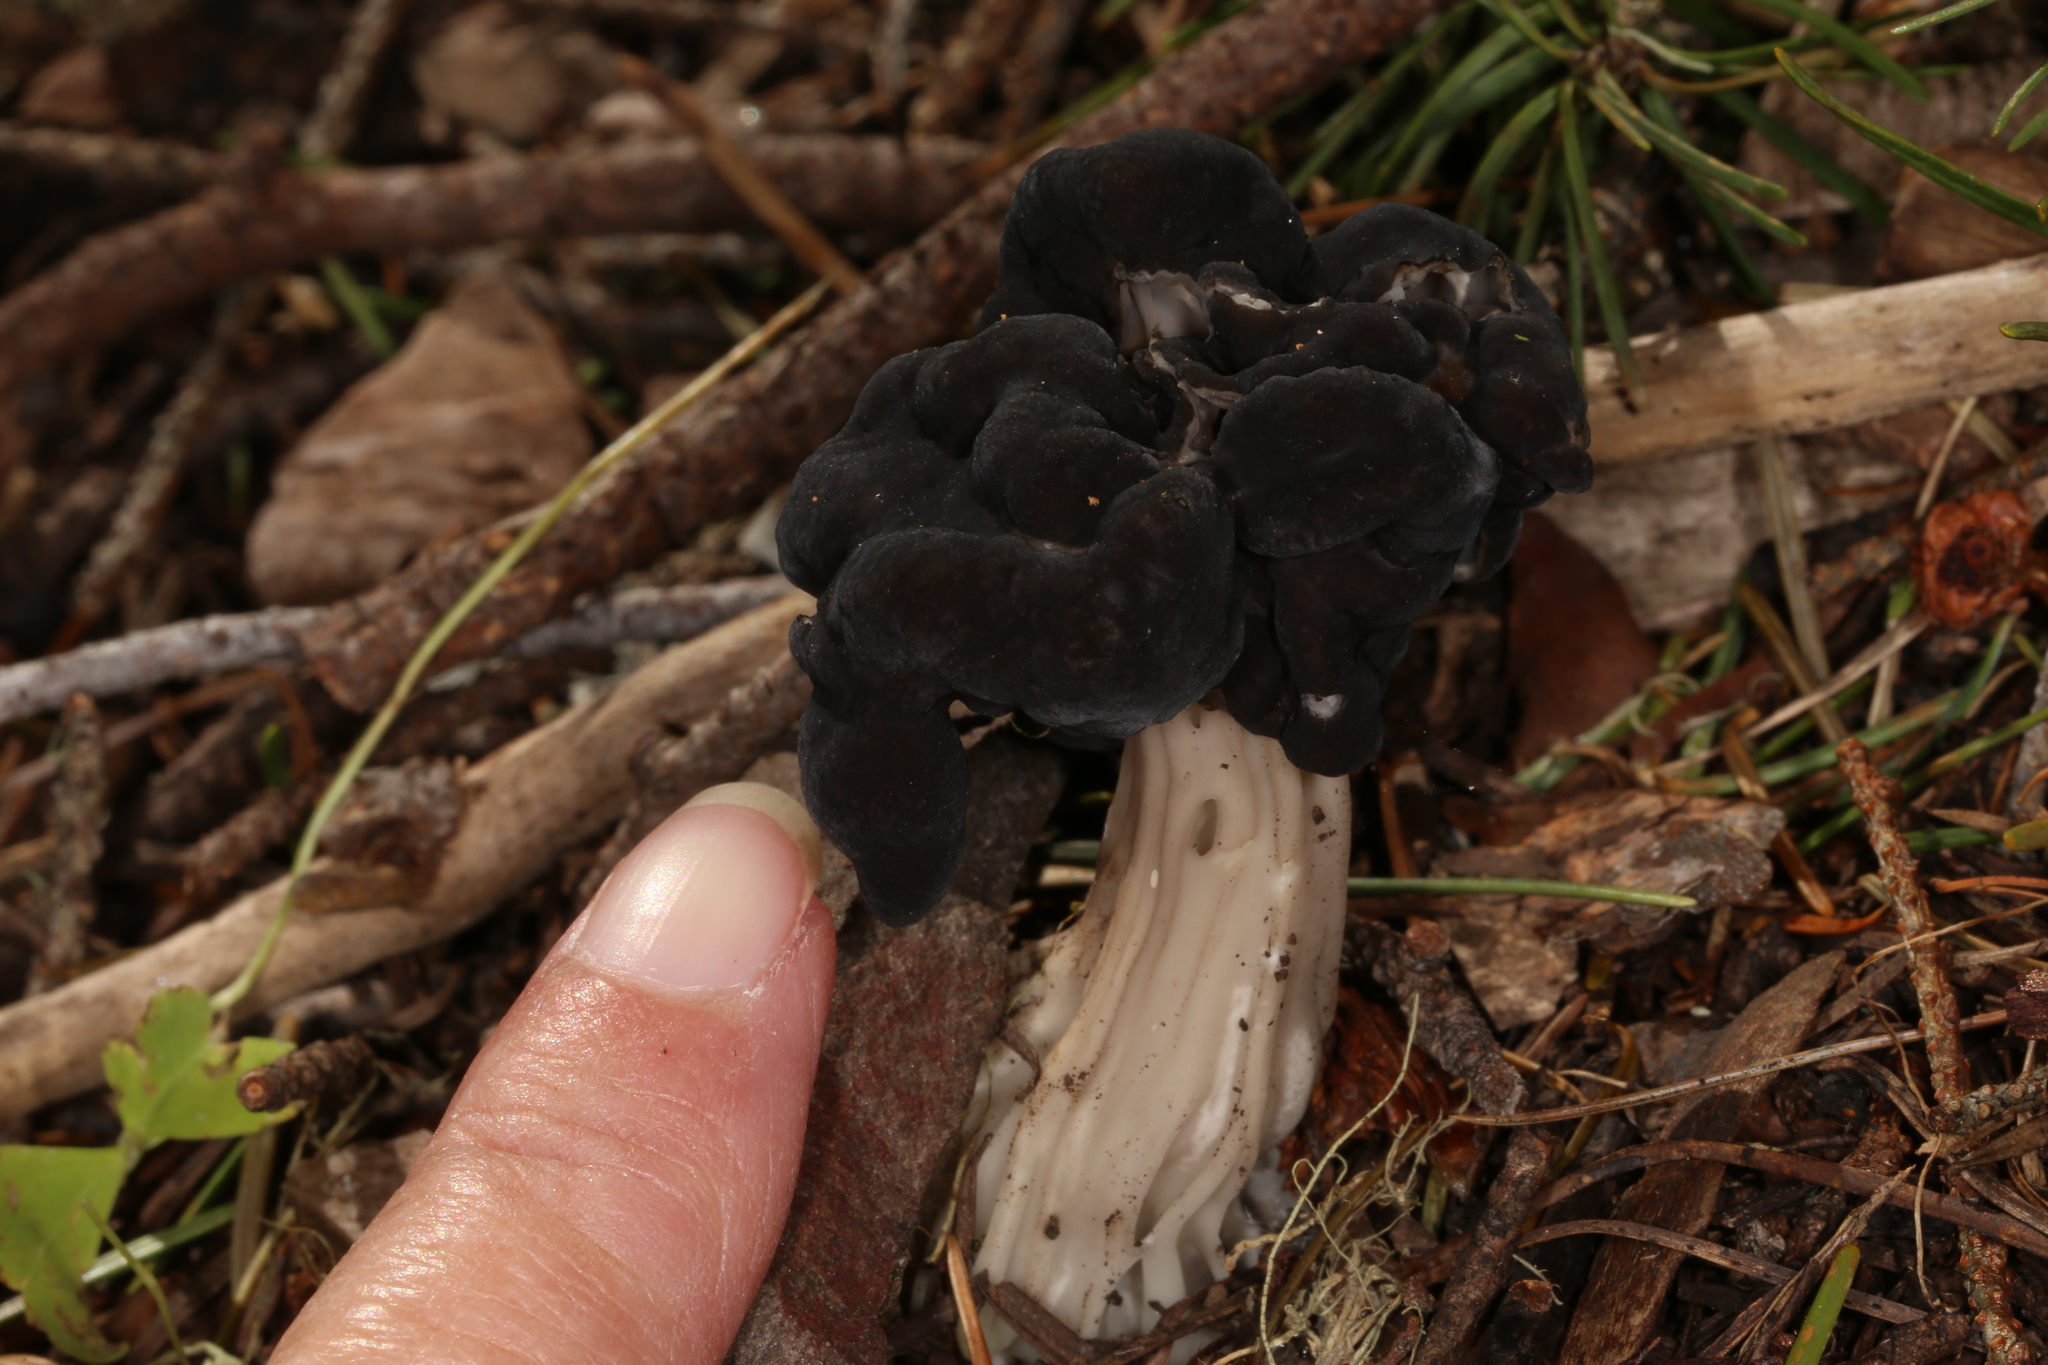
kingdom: Fungi
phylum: Ascomycota
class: Pezizomycetes
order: Pezizales
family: Helvellaceae
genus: Helvella
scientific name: Helvella vespertina
